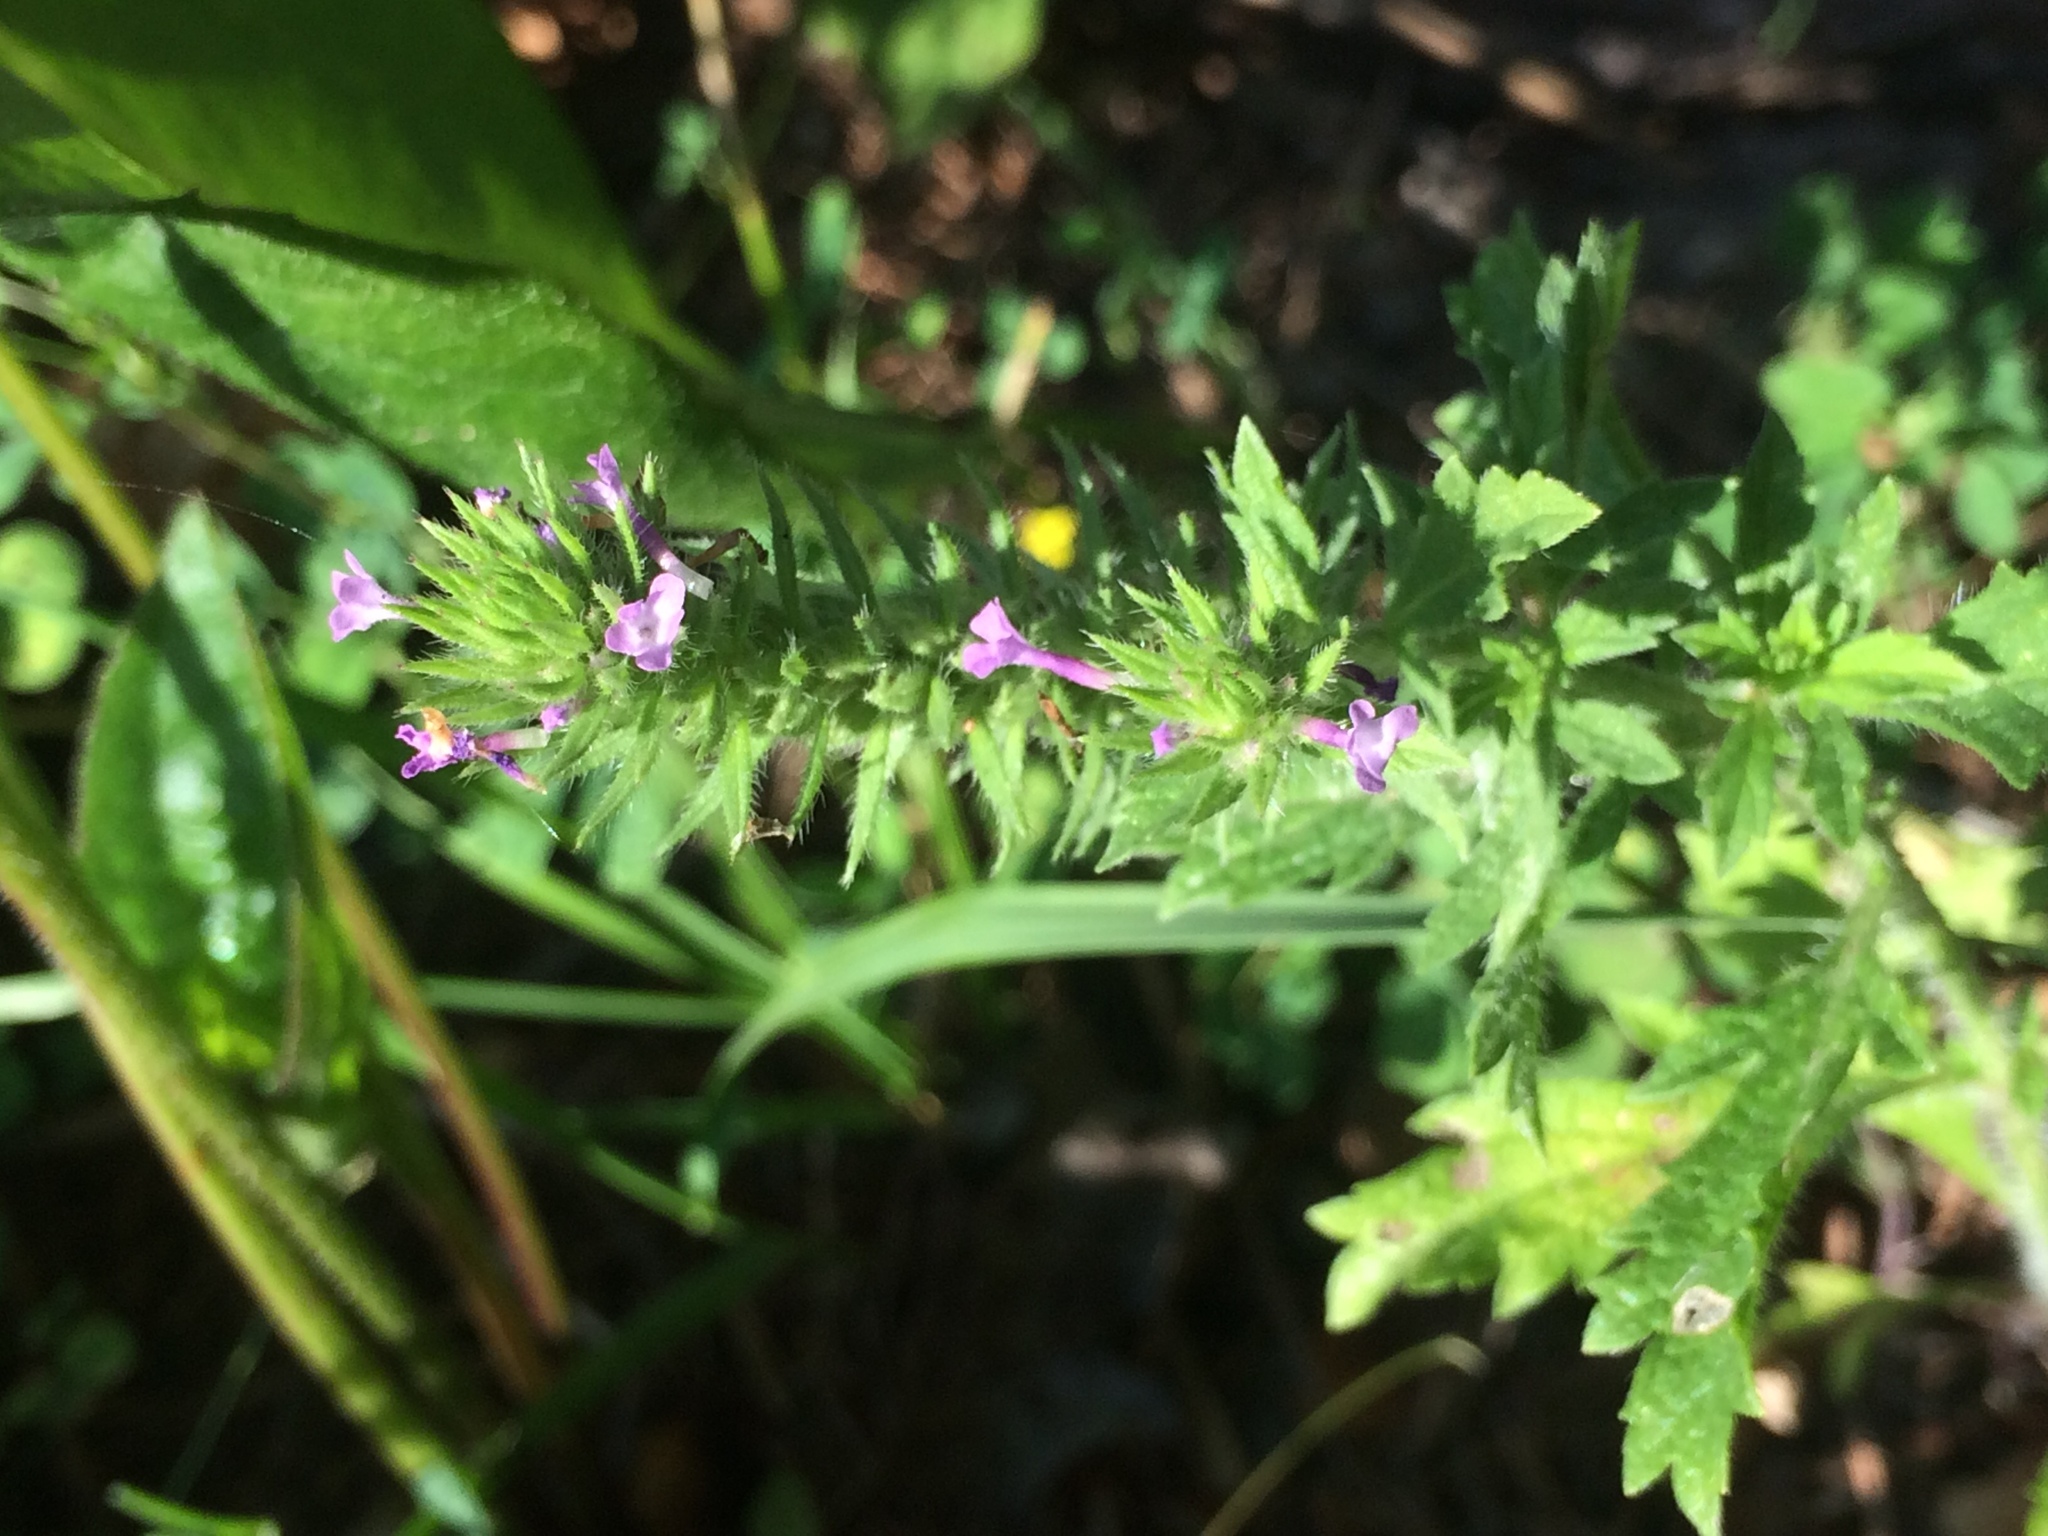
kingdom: Plantae
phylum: Tracheophyta
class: Magnoliopsida
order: Lamiales
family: Verbenaceae
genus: Verbena
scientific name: Verbena bracteata
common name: Bracted vervain
